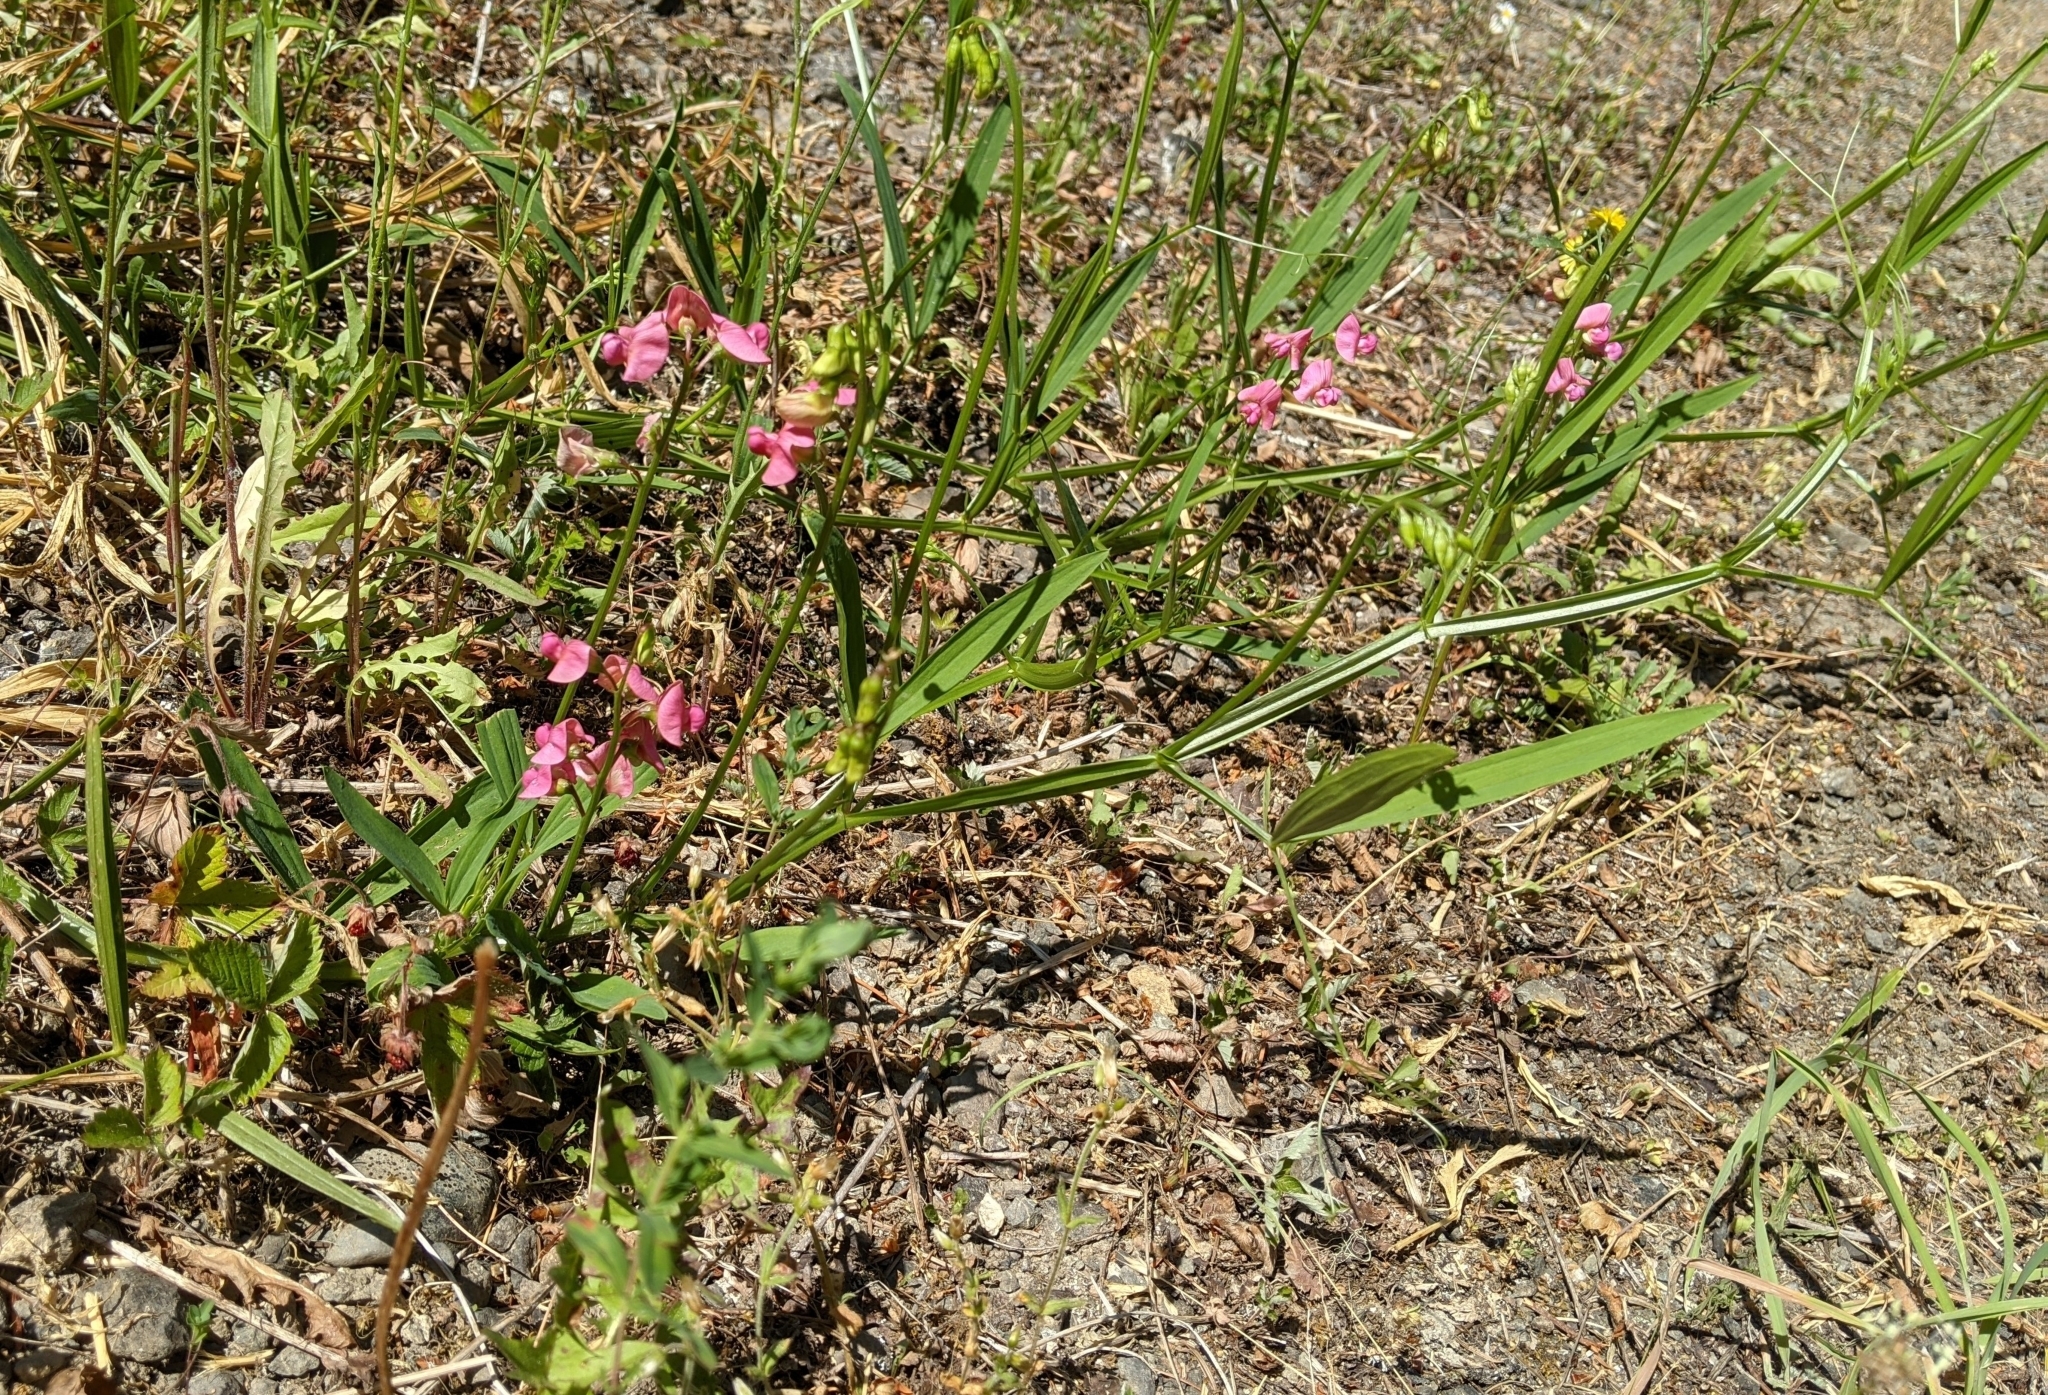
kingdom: Plantae
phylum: Tracheophyta
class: Magnoliopsida
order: Fabales
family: Fabaceae
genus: Lathyrus
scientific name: Lathyrus sylvestris
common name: Flat pea
